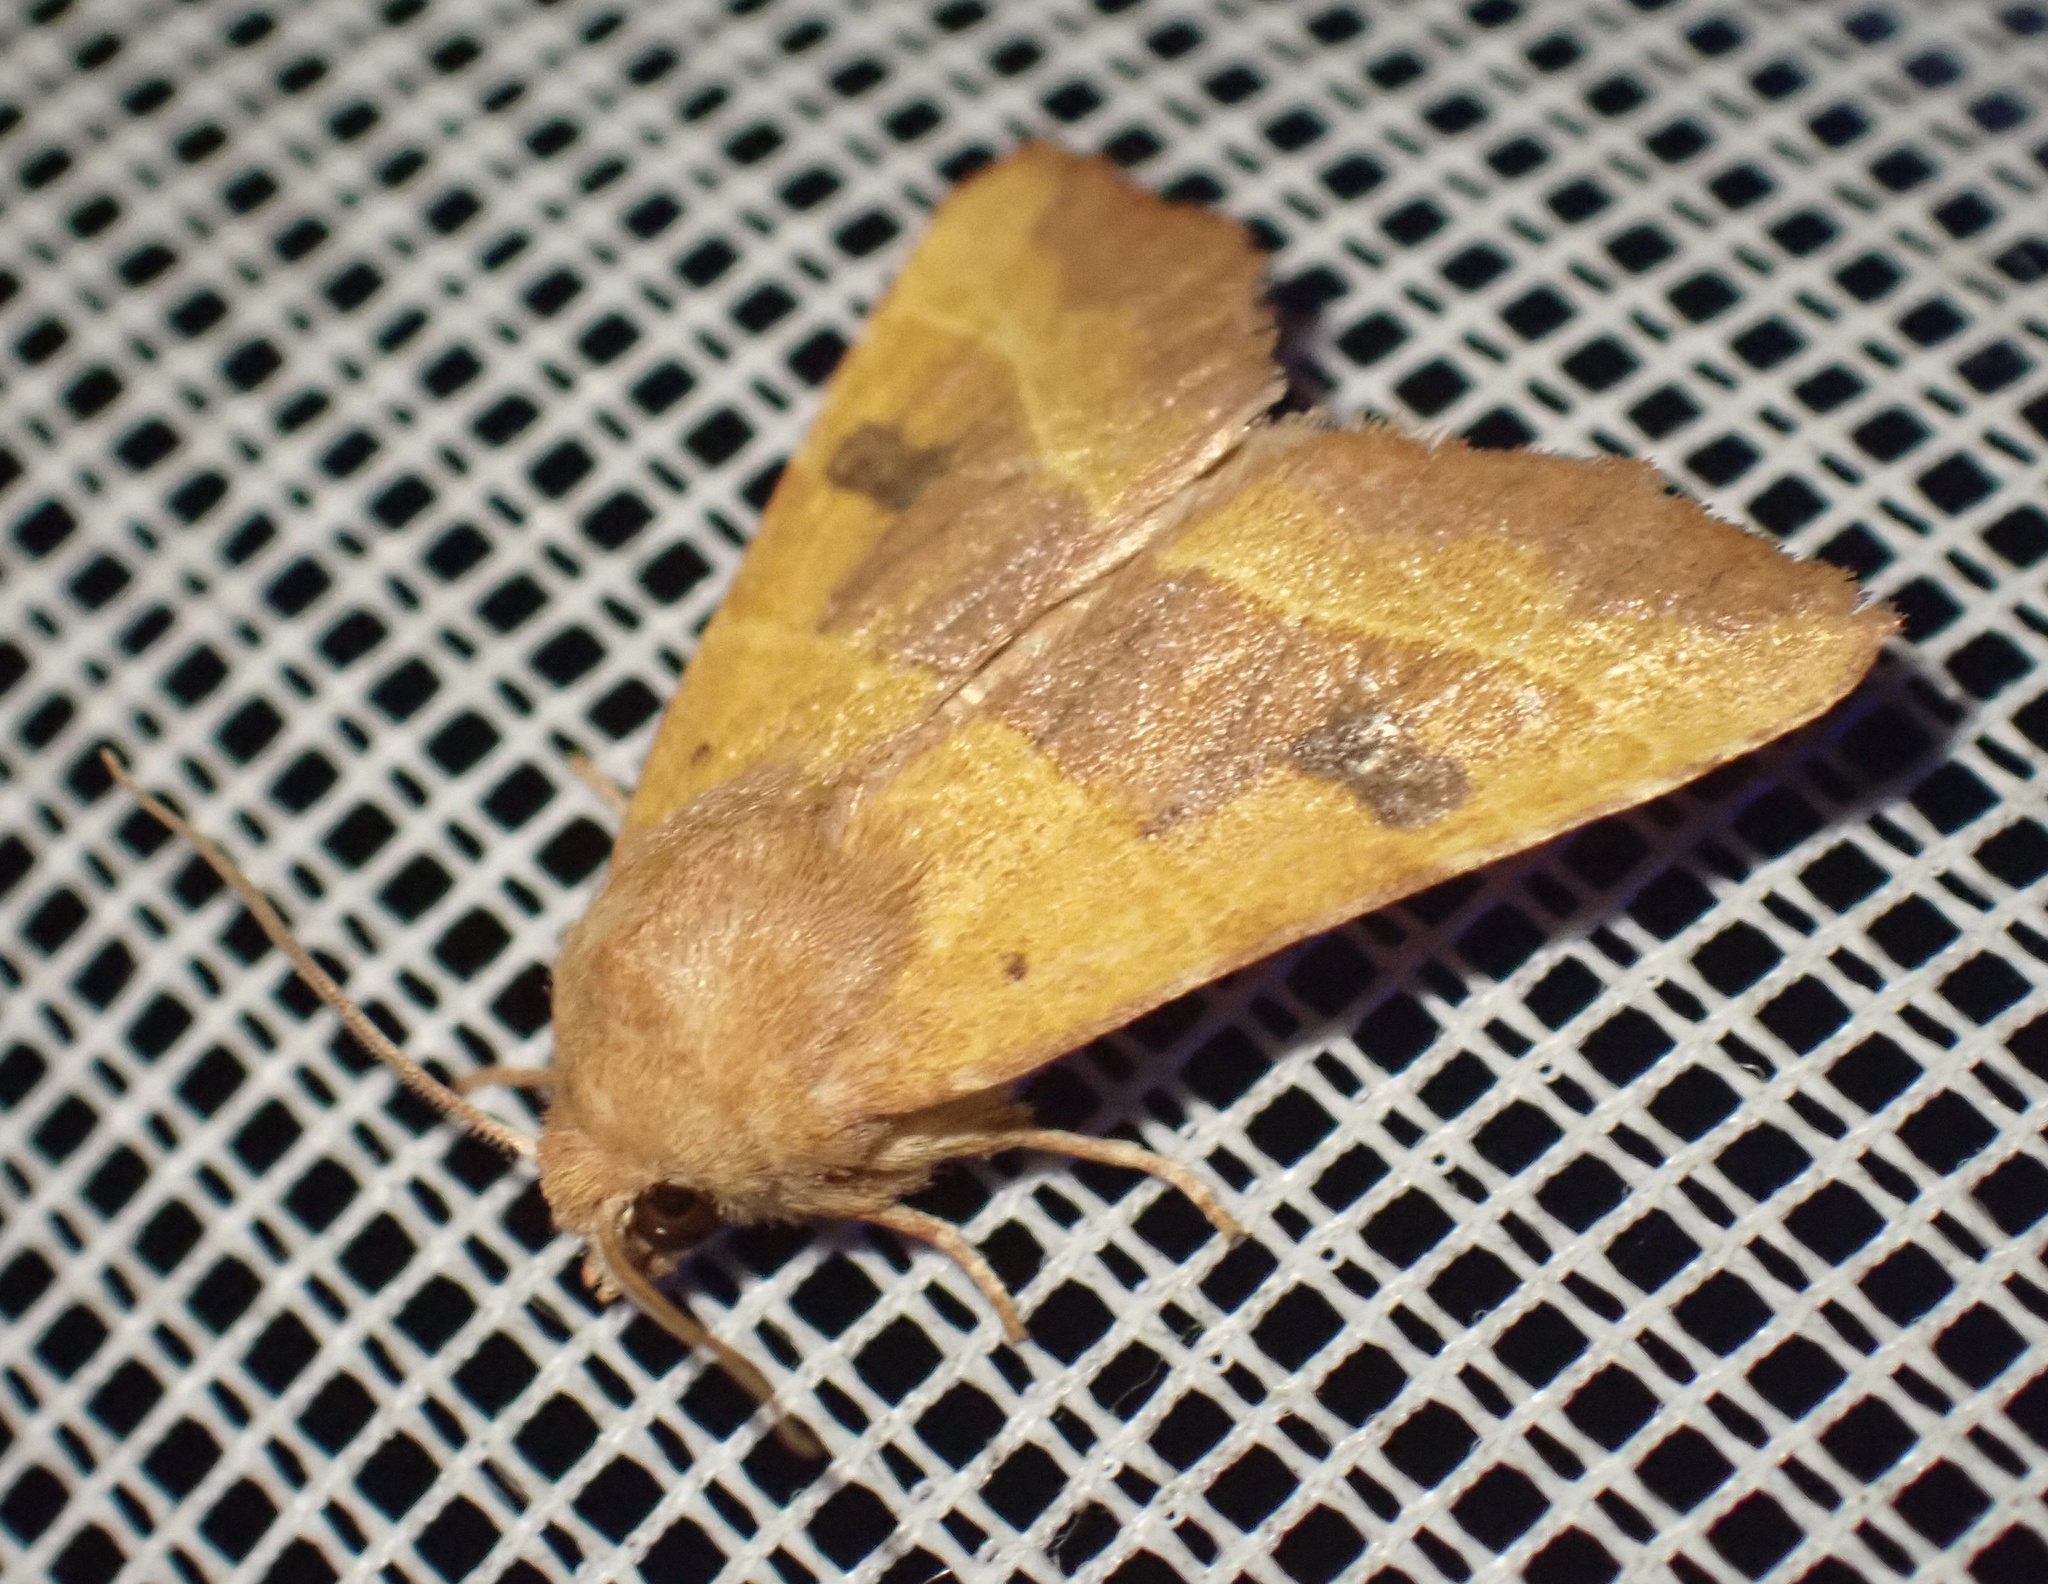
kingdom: Animalia
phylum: Arthropoda
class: Insecta
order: Lepidoptera
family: Noctuidae
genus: Atethmia
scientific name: Atethmia centrago
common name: Centre-barred sallow
